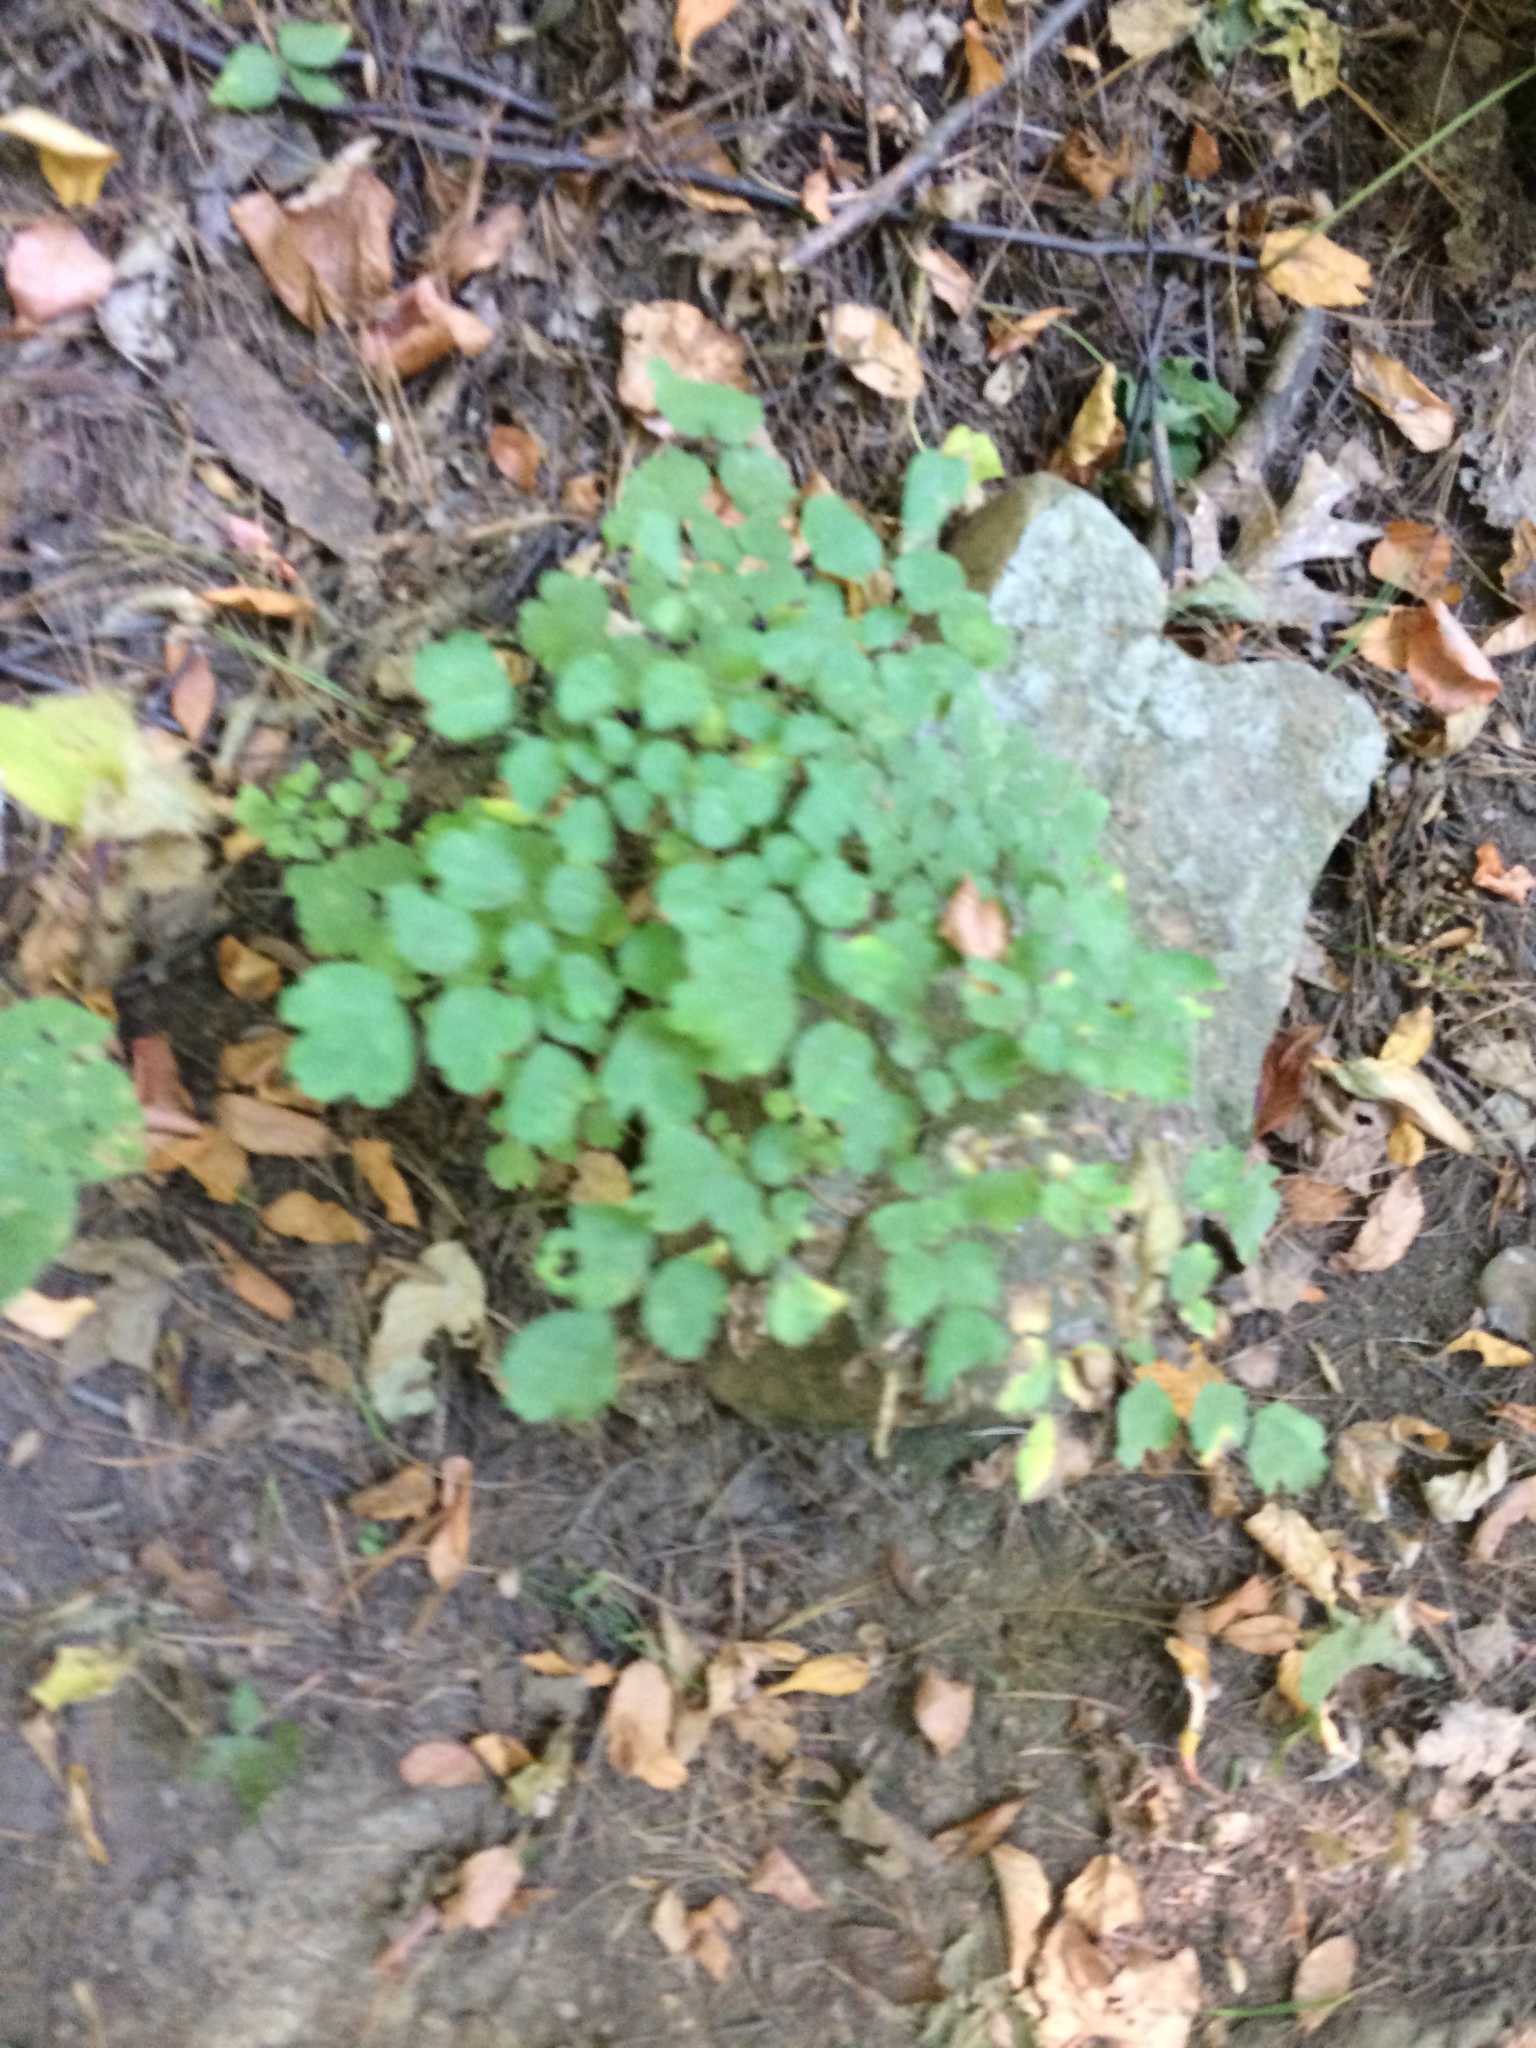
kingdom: Plantae
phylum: Tracheophyta
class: Magnoliopsida
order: Ranunculales
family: Ranunculaceae
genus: Thalictrum
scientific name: Thalictrum dioicum
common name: Early meadow-rue
